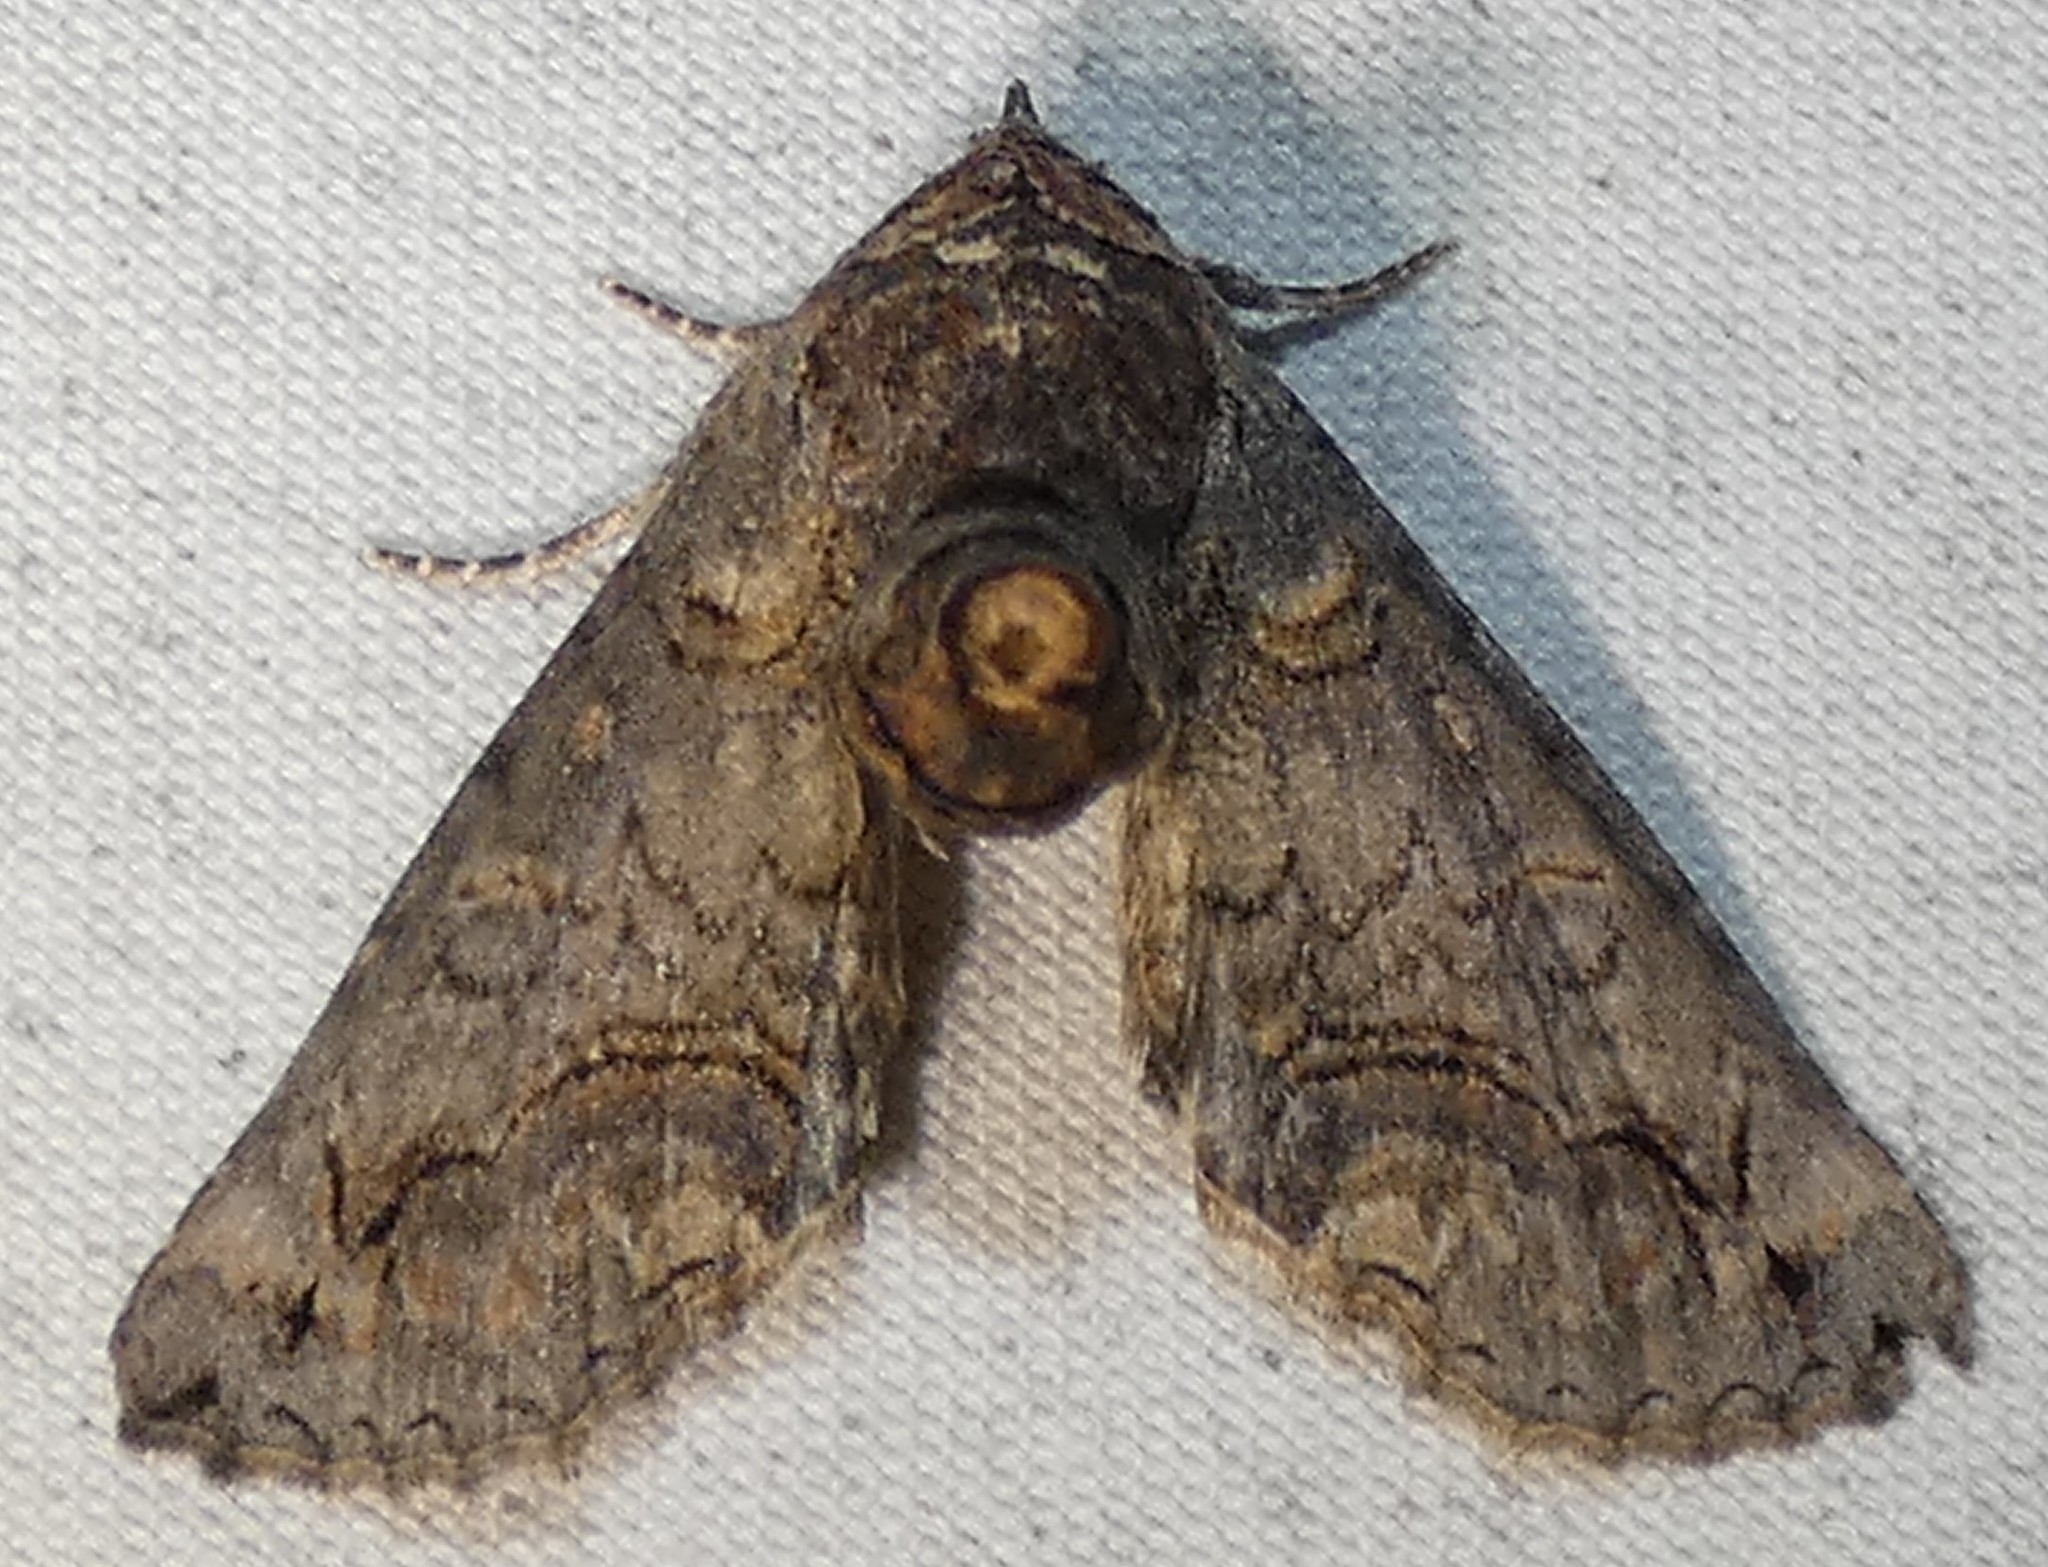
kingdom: Animalia
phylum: Arthropoda
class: Insecta
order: Lepidoptera
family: Euteliidae
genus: Paectes
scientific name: Paectes abrostoloides
